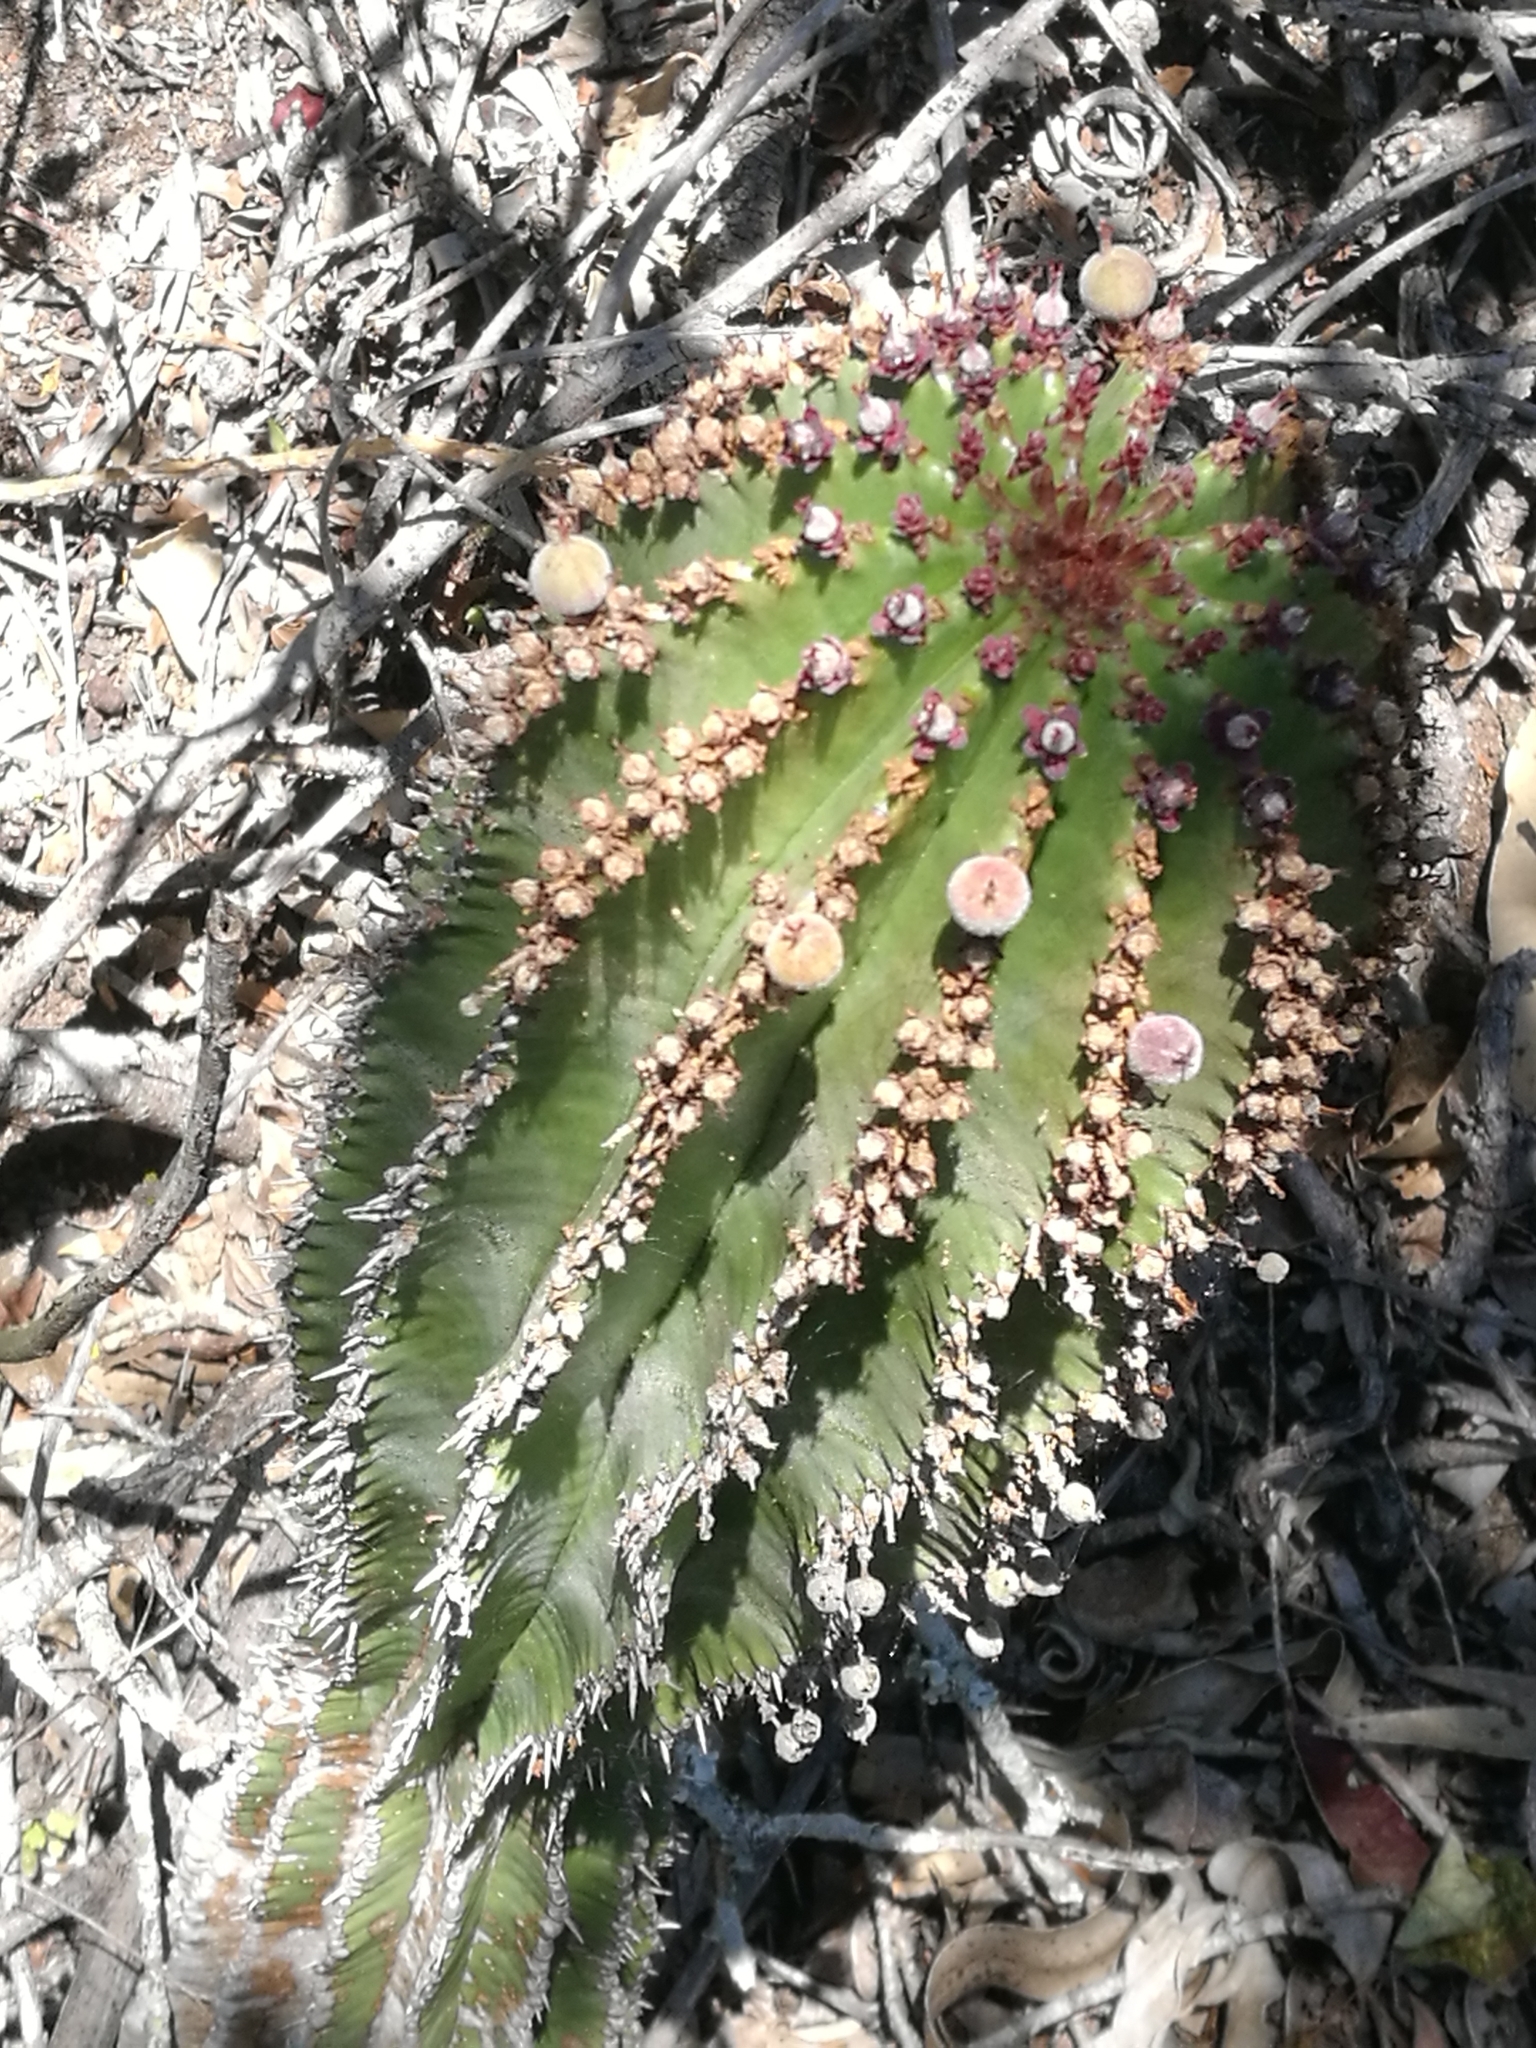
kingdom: Plantae
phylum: Tracheophyta
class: Magnoliopsida
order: Malpighiales
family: Euphorbiaceae
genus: Euphorbia
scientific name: Euphorbia polygona
